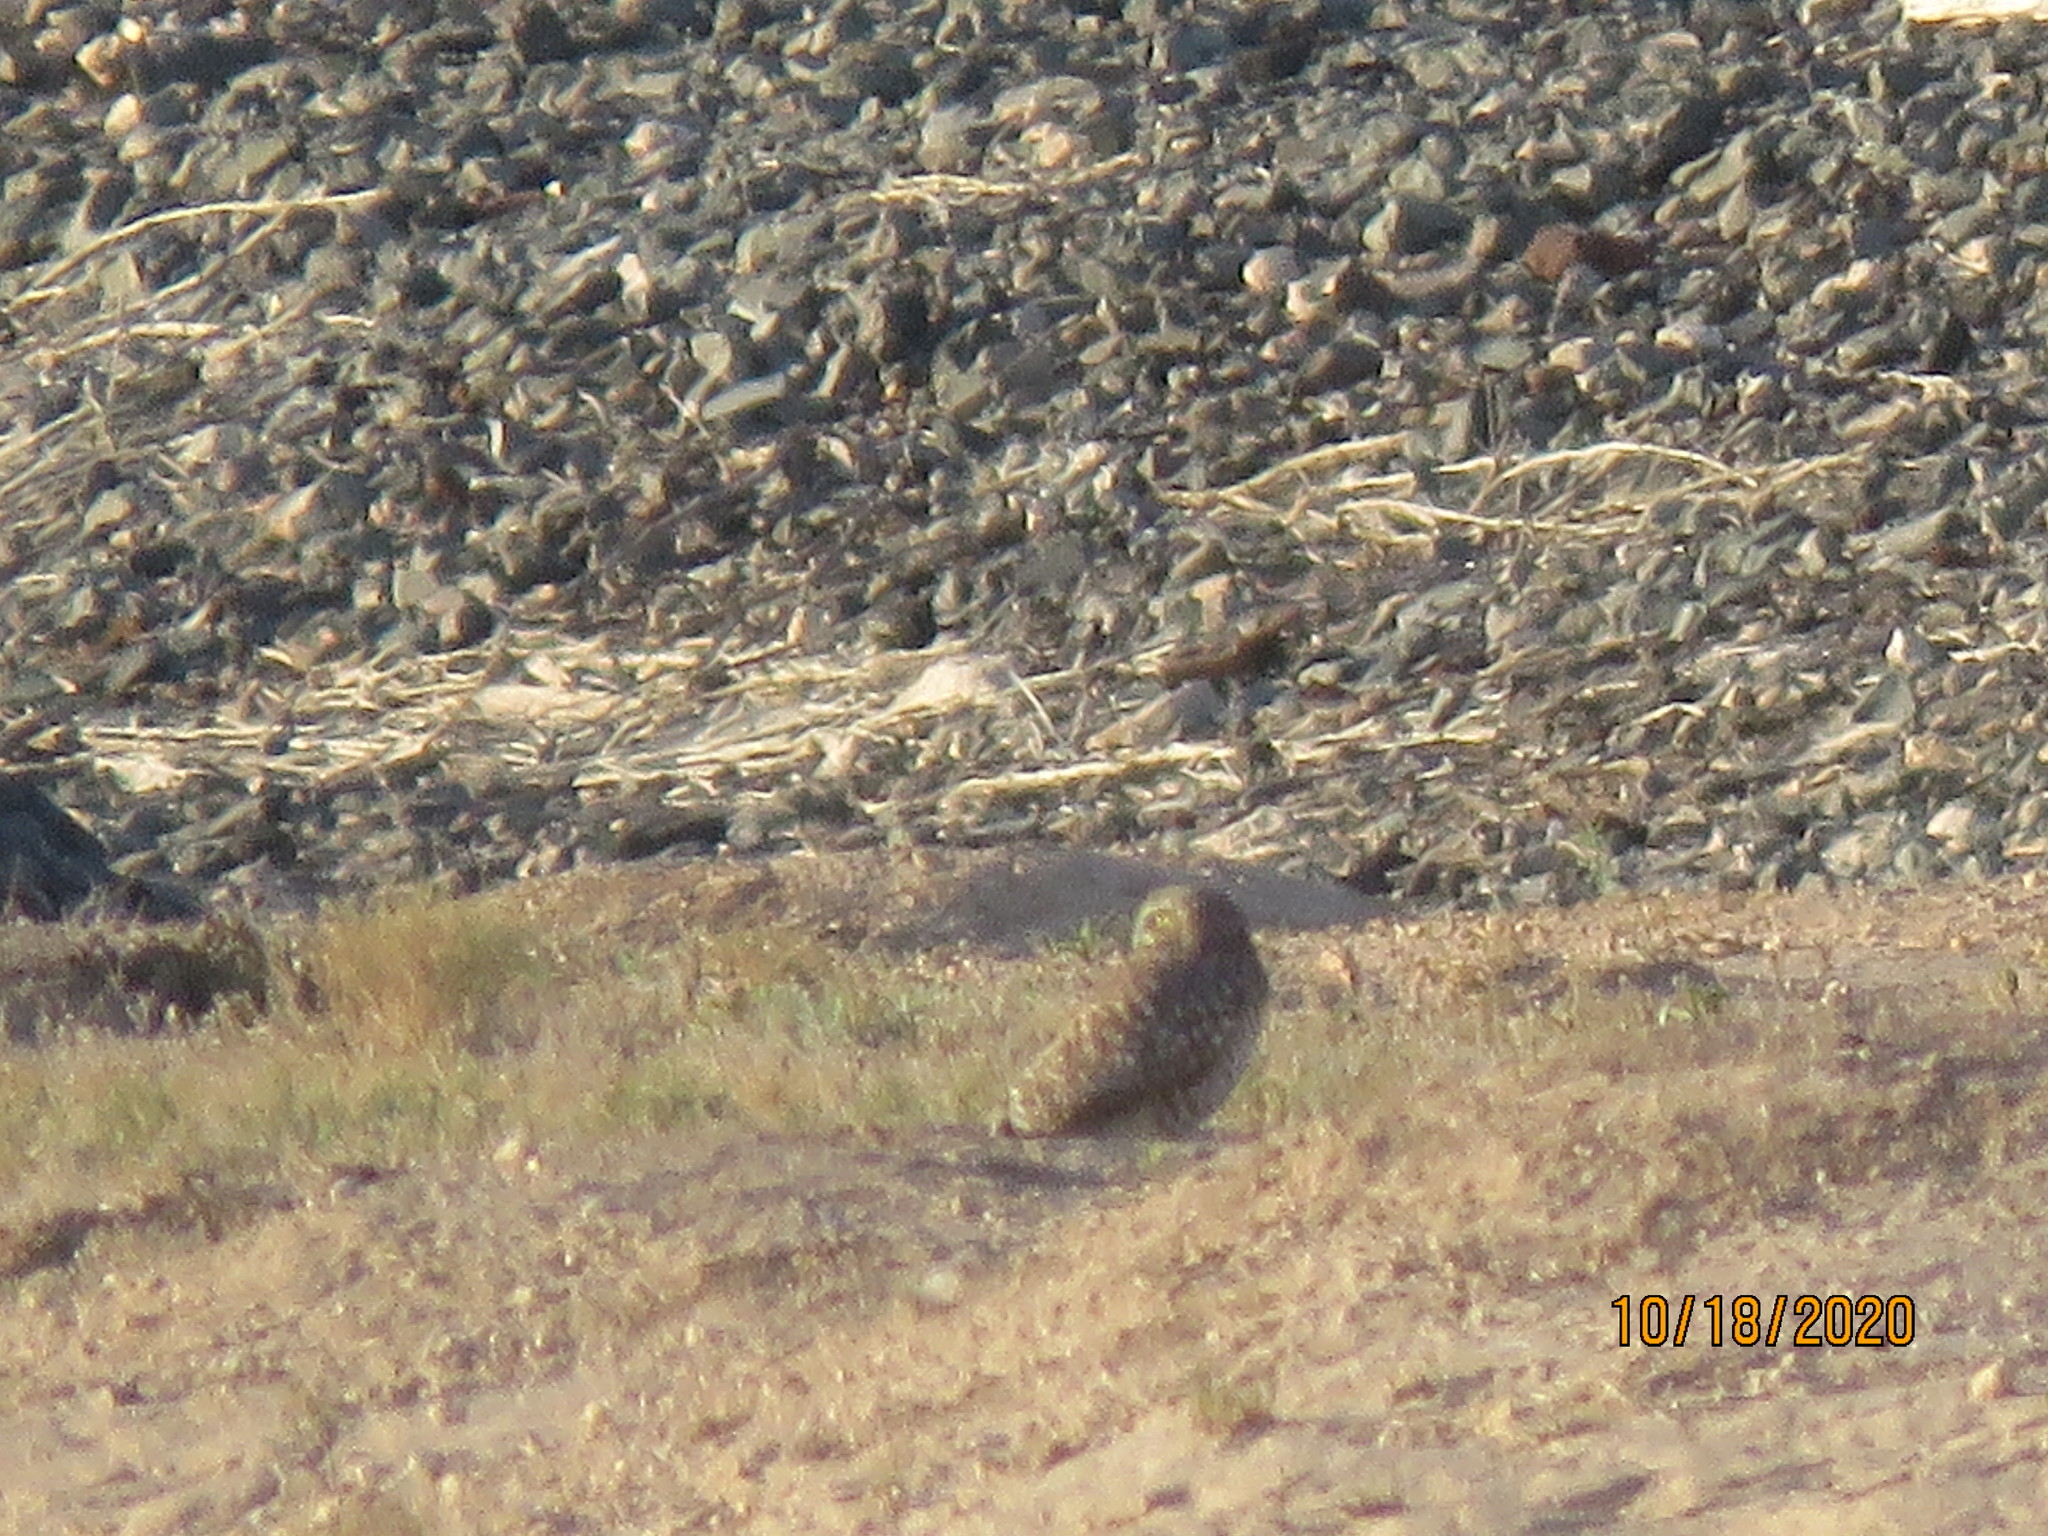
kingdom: Animalia
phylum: Chordata
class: Aves
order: Strigiformes
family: Strigidae
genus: Athene
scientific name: Athene cunicularia
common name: Burrowing owl
